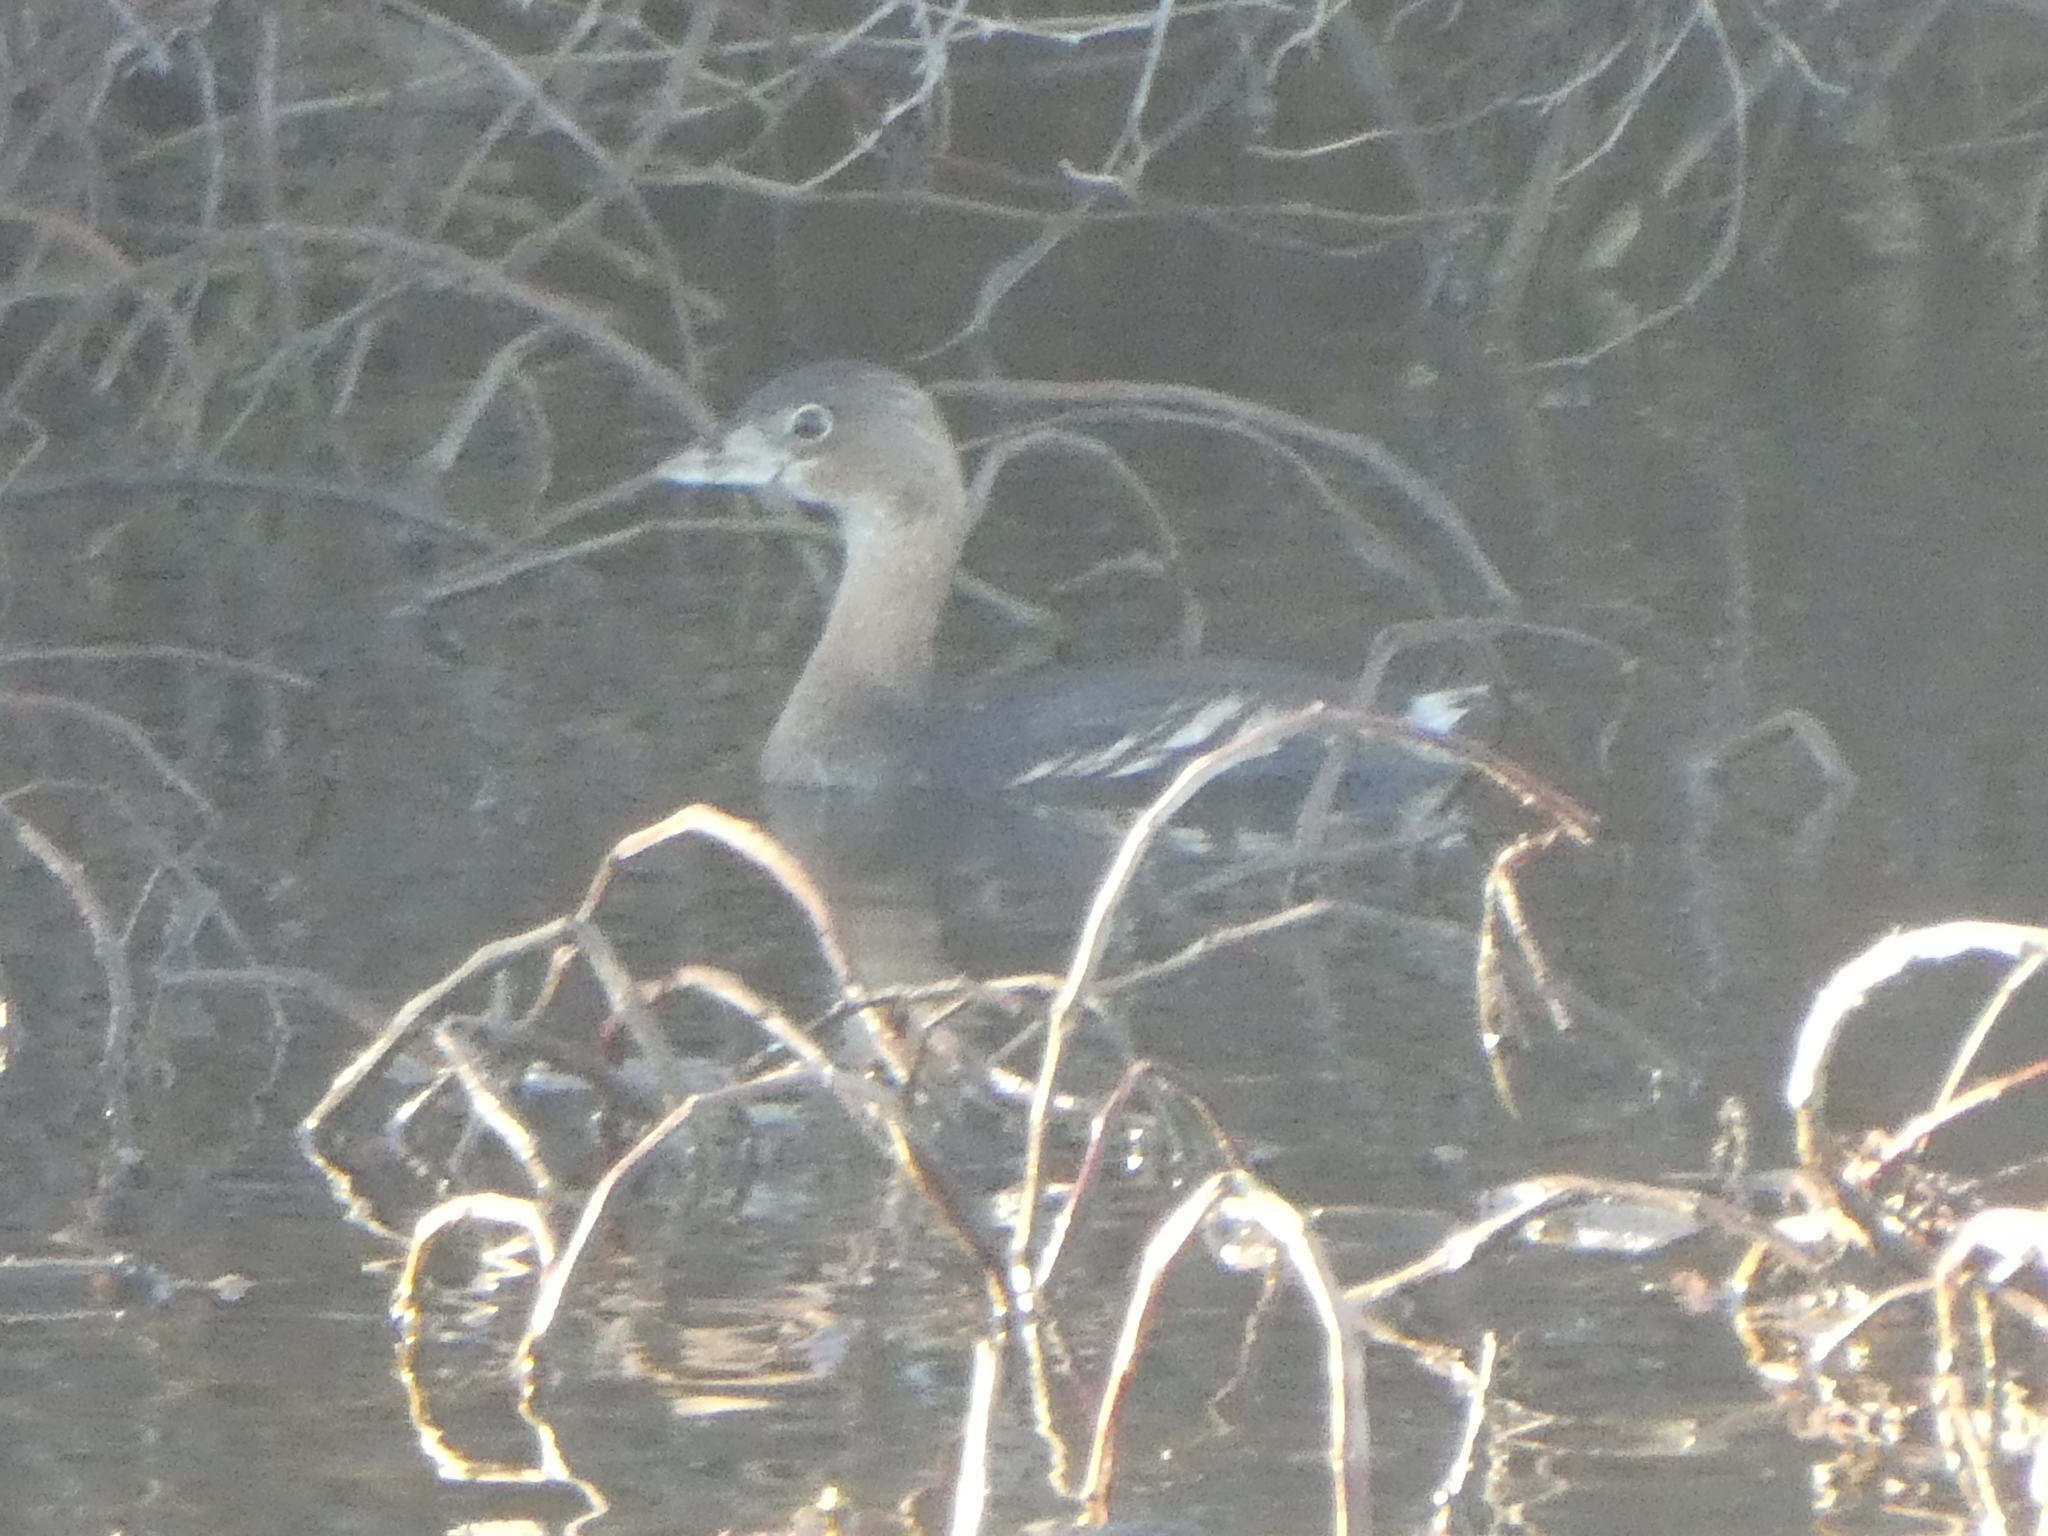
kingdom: Animalia
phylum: Chordata
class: Aves
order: Podicipediformes
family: Podicipedidae
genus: Podilymbus
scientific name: Podilymbus podiceps
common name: Pied-billed grebe
